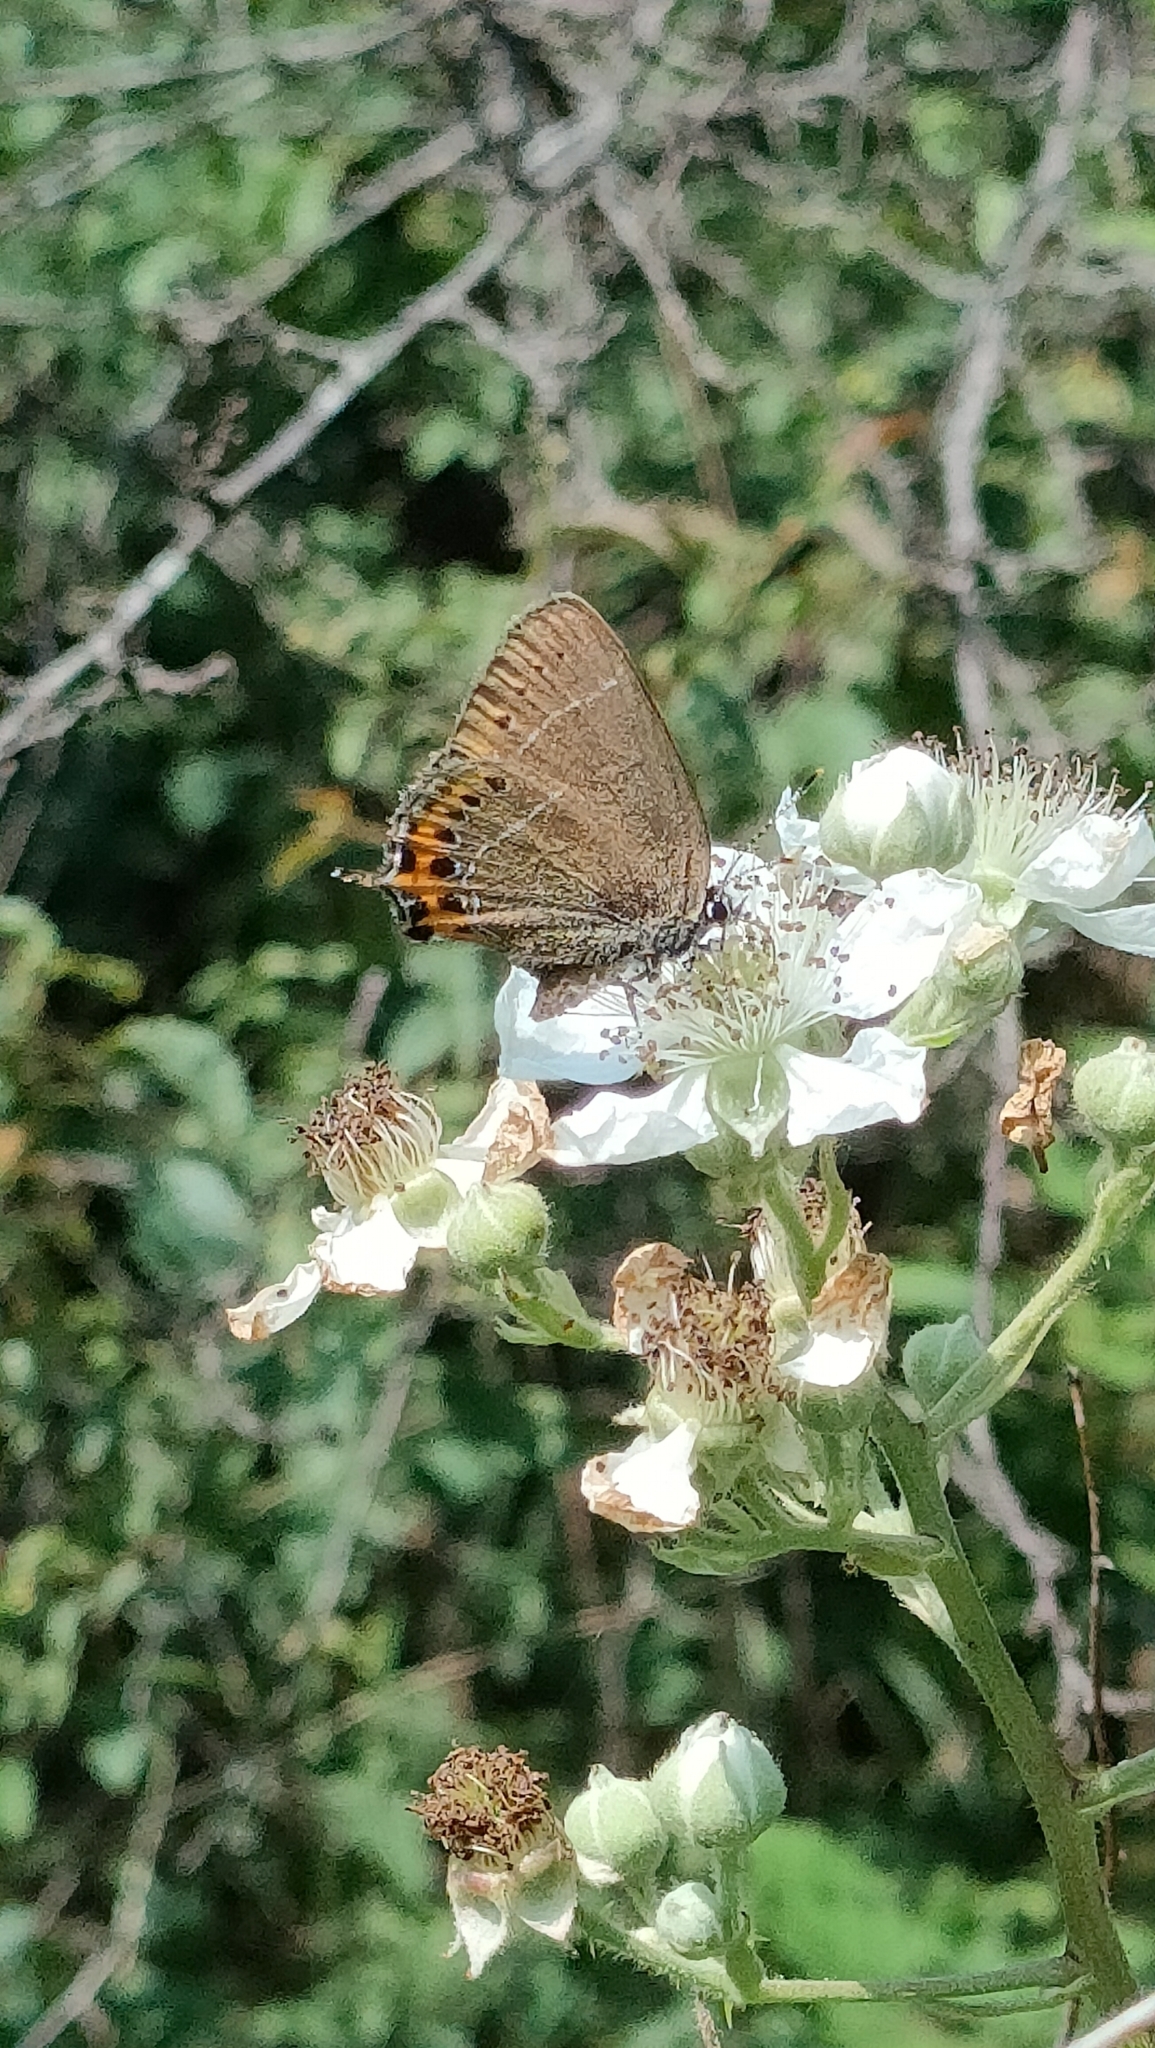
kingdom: Animalia
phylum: Arthropoda
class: Insecta
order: Lepidoptera
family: Lycaenidae
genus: Fixsenia
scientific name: Fixsenia pruni
